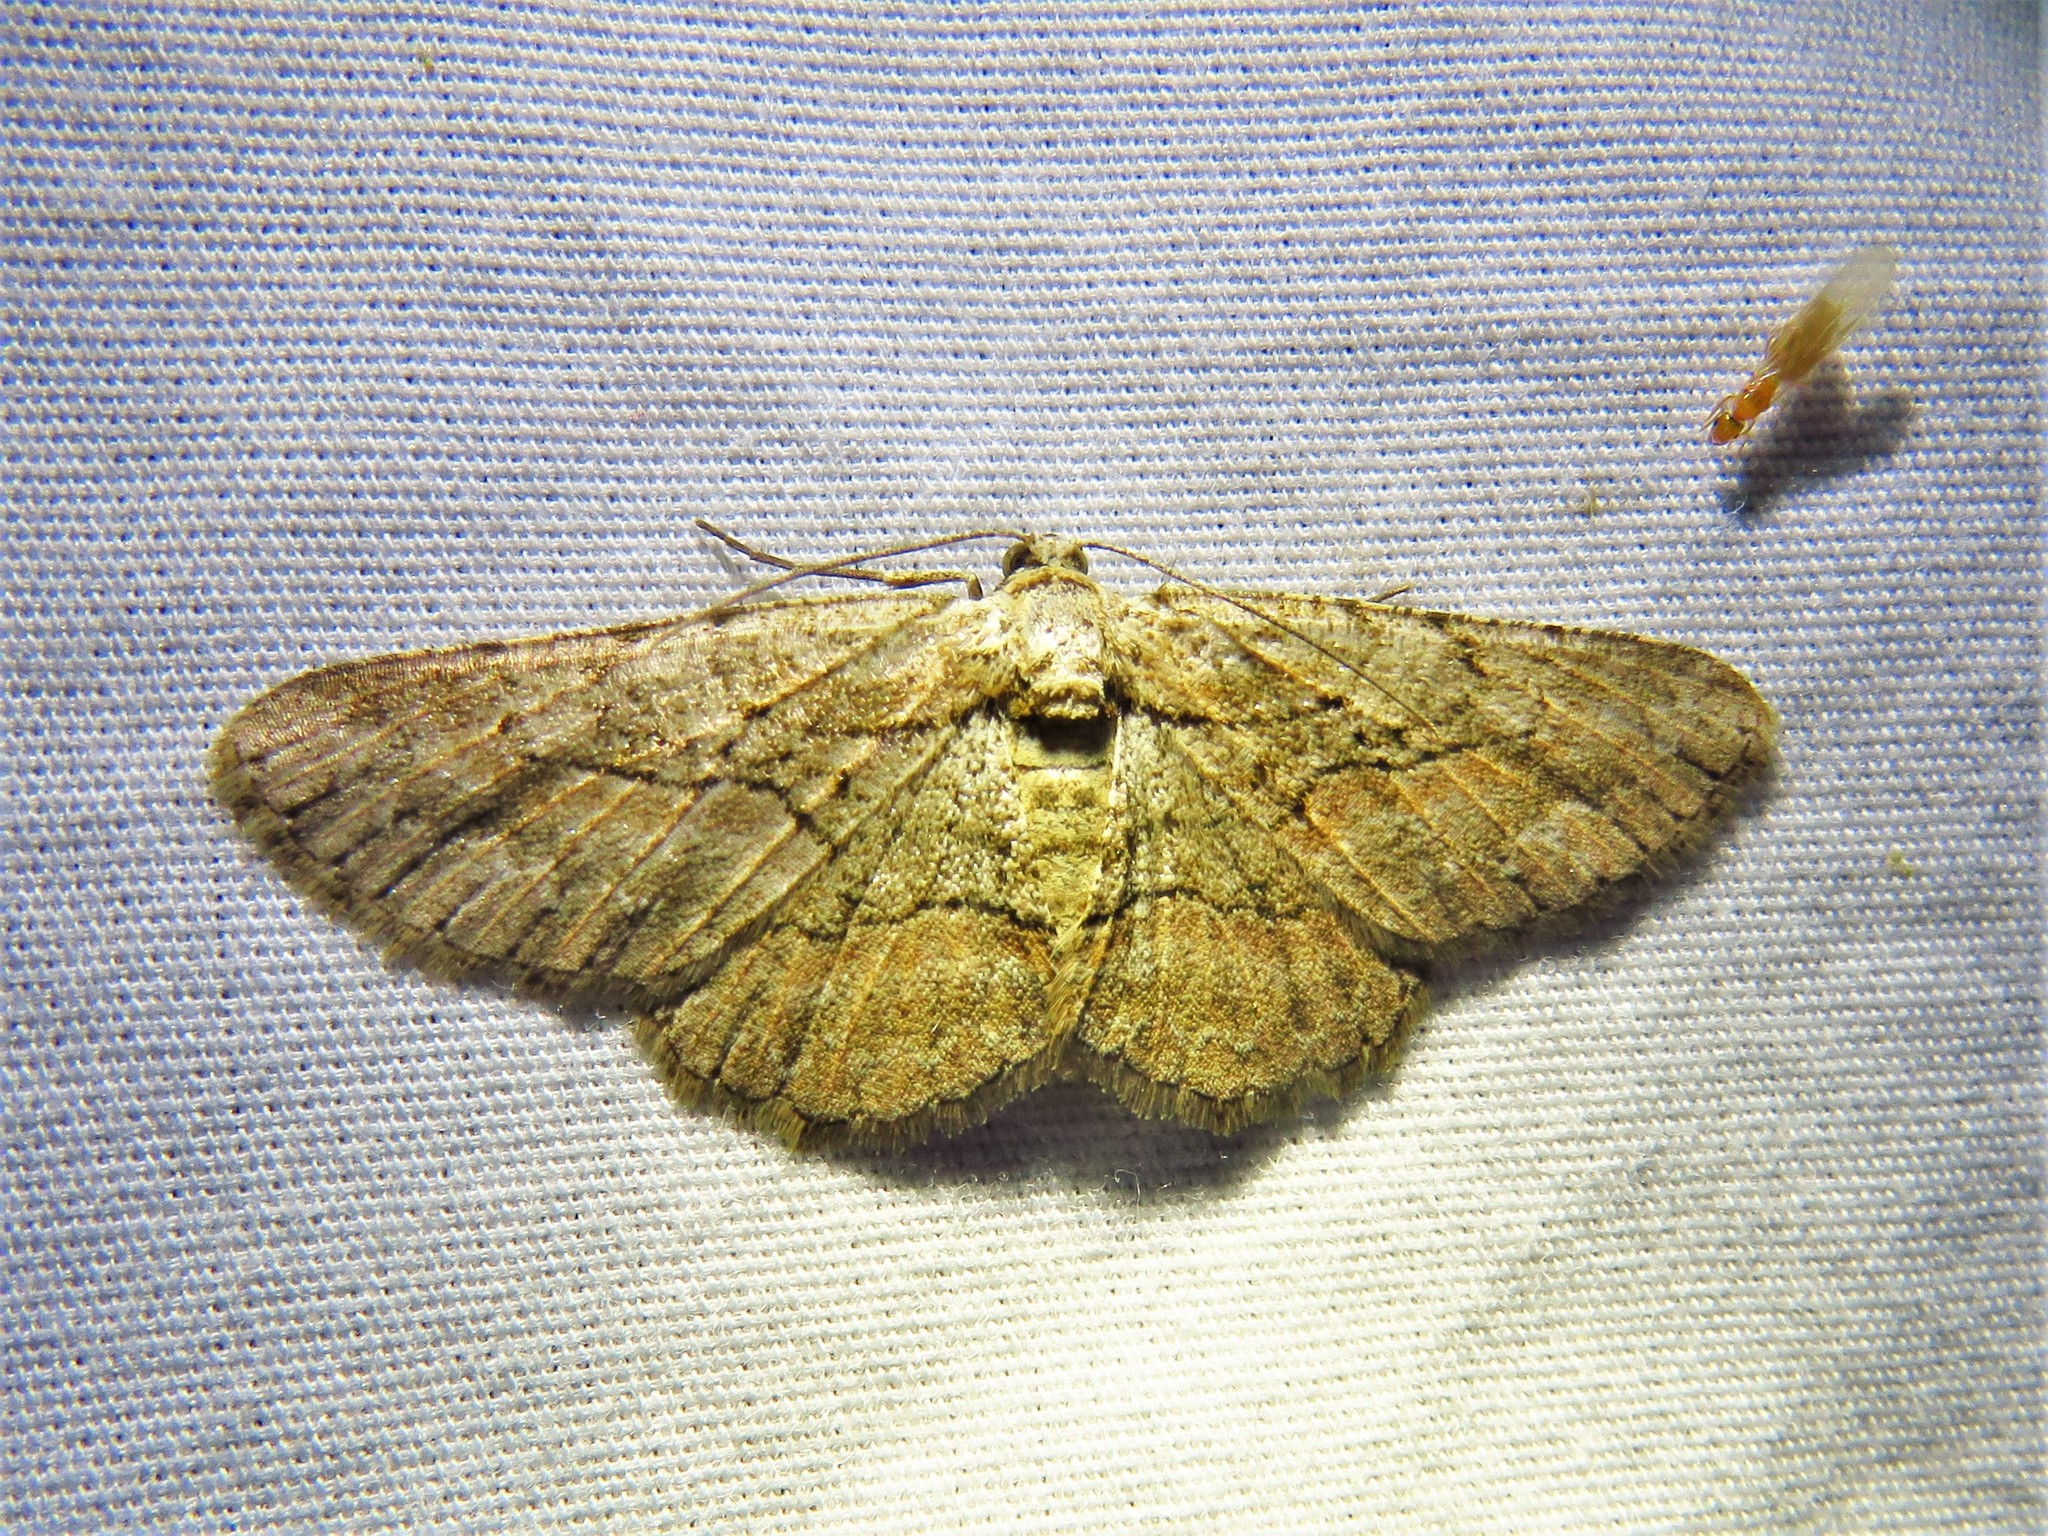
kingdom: Animalia
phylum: Arthropoda
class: Insecta
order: Lepidoptera
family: Geometridae
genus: Anavitrinella
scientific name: Anavitrinella addendaria
